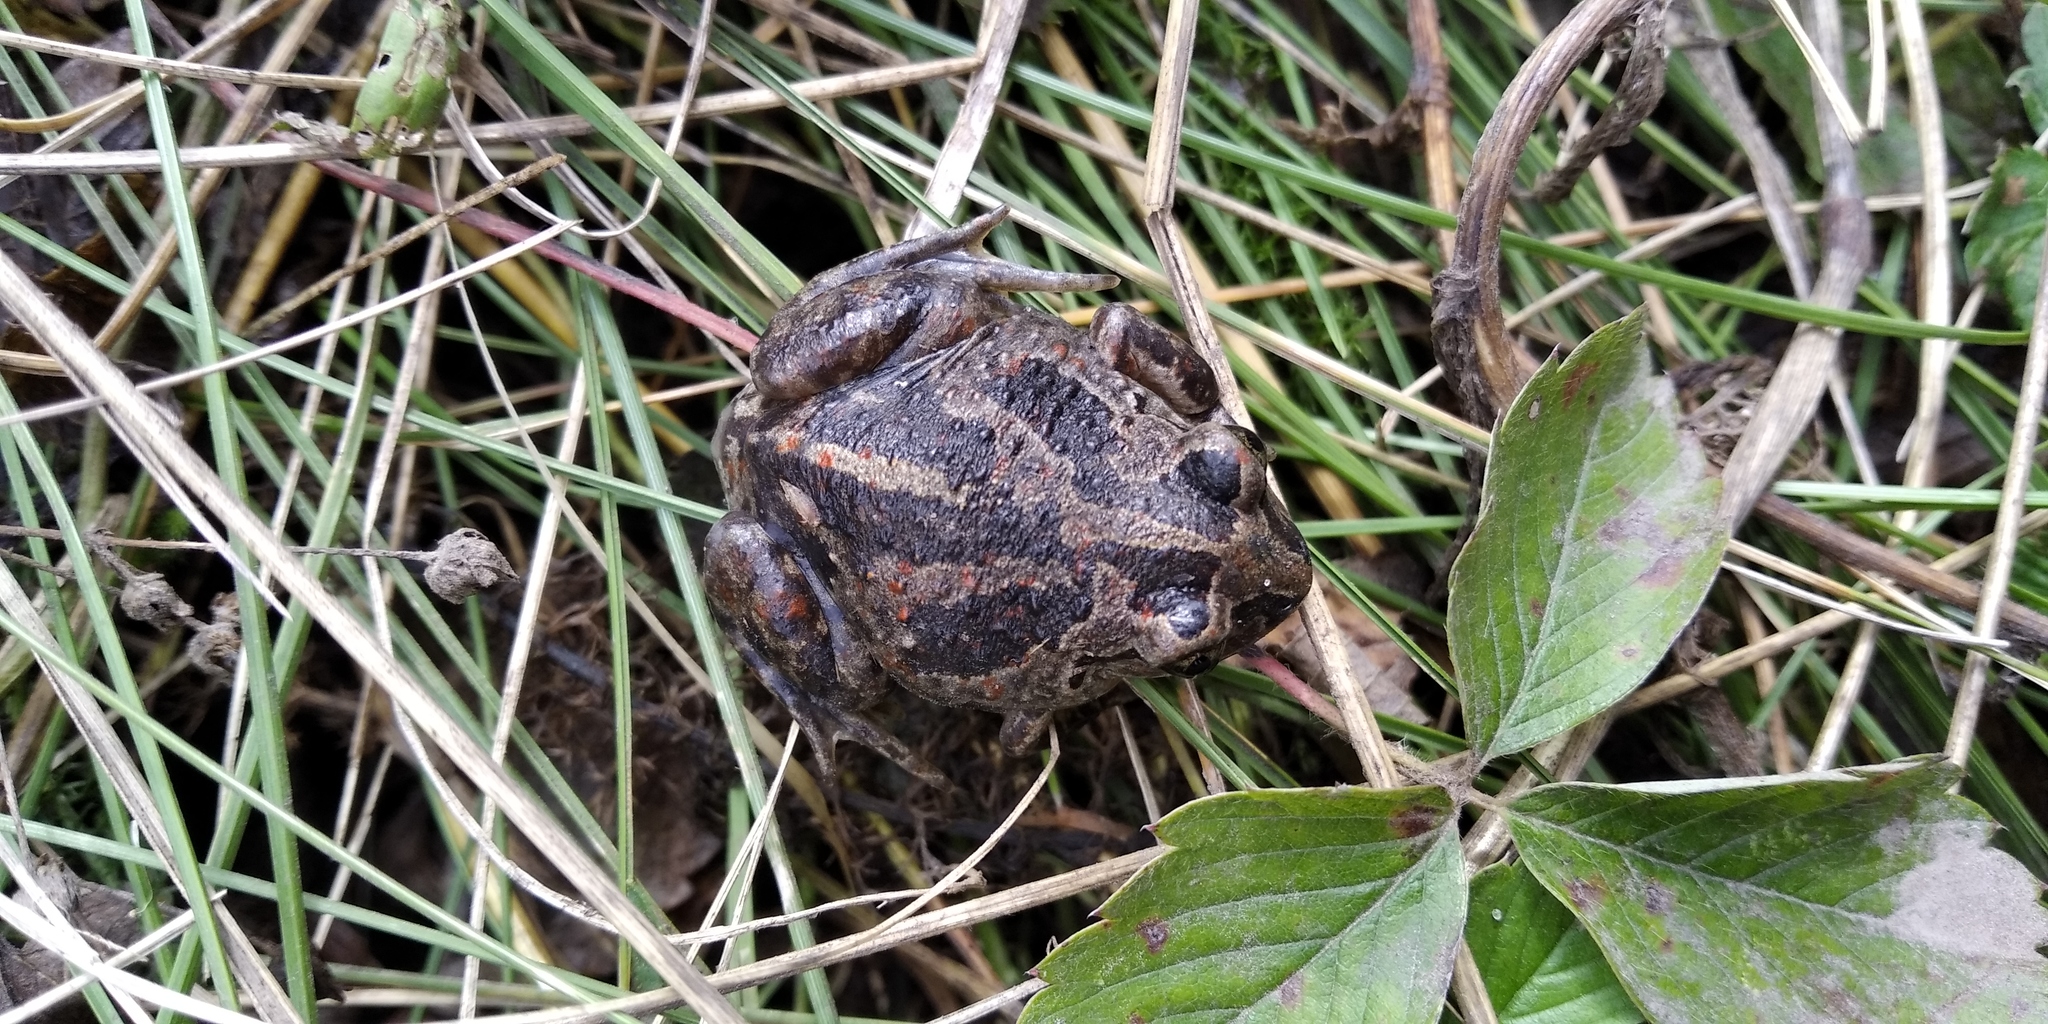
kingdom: Animalia
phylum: Chordata
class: Amphibia
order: Anura
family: Pelobatidae
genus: Pelobates
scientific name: Pelobates fuscus
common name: Common eurasian spadefoot toad
